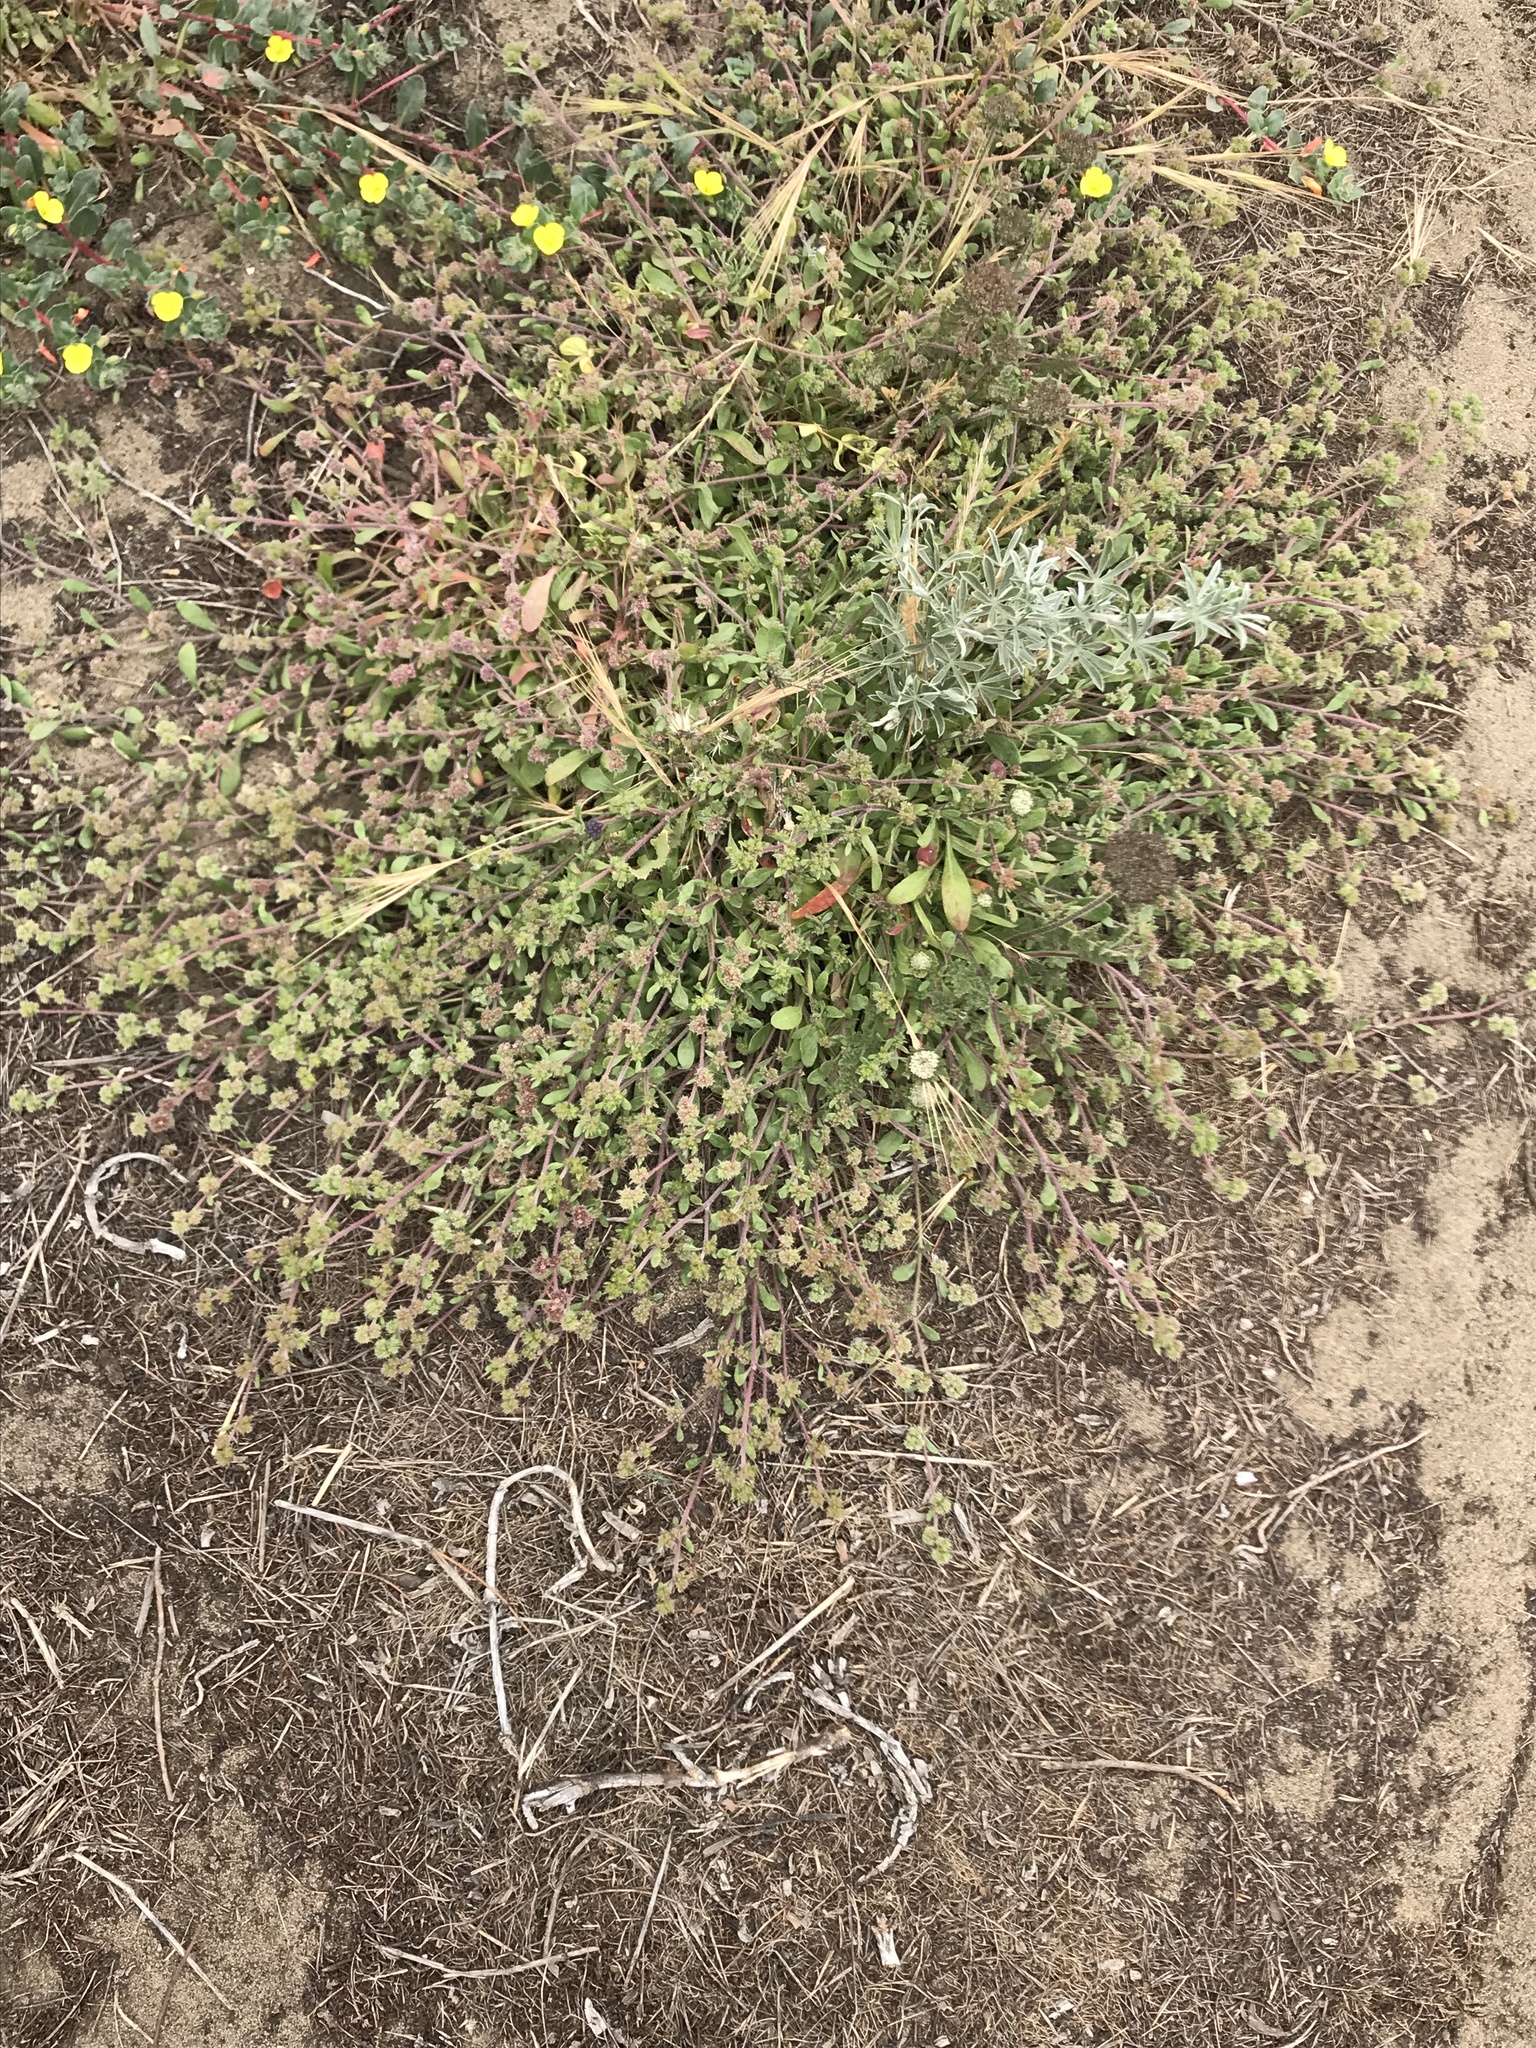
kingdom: Plantae
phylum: Tracheophyta
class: Magnoliopsida
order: Caryophyllales
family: Polygonaceae
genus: Chorizanthe
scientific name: Chorizanthe cuspidata
